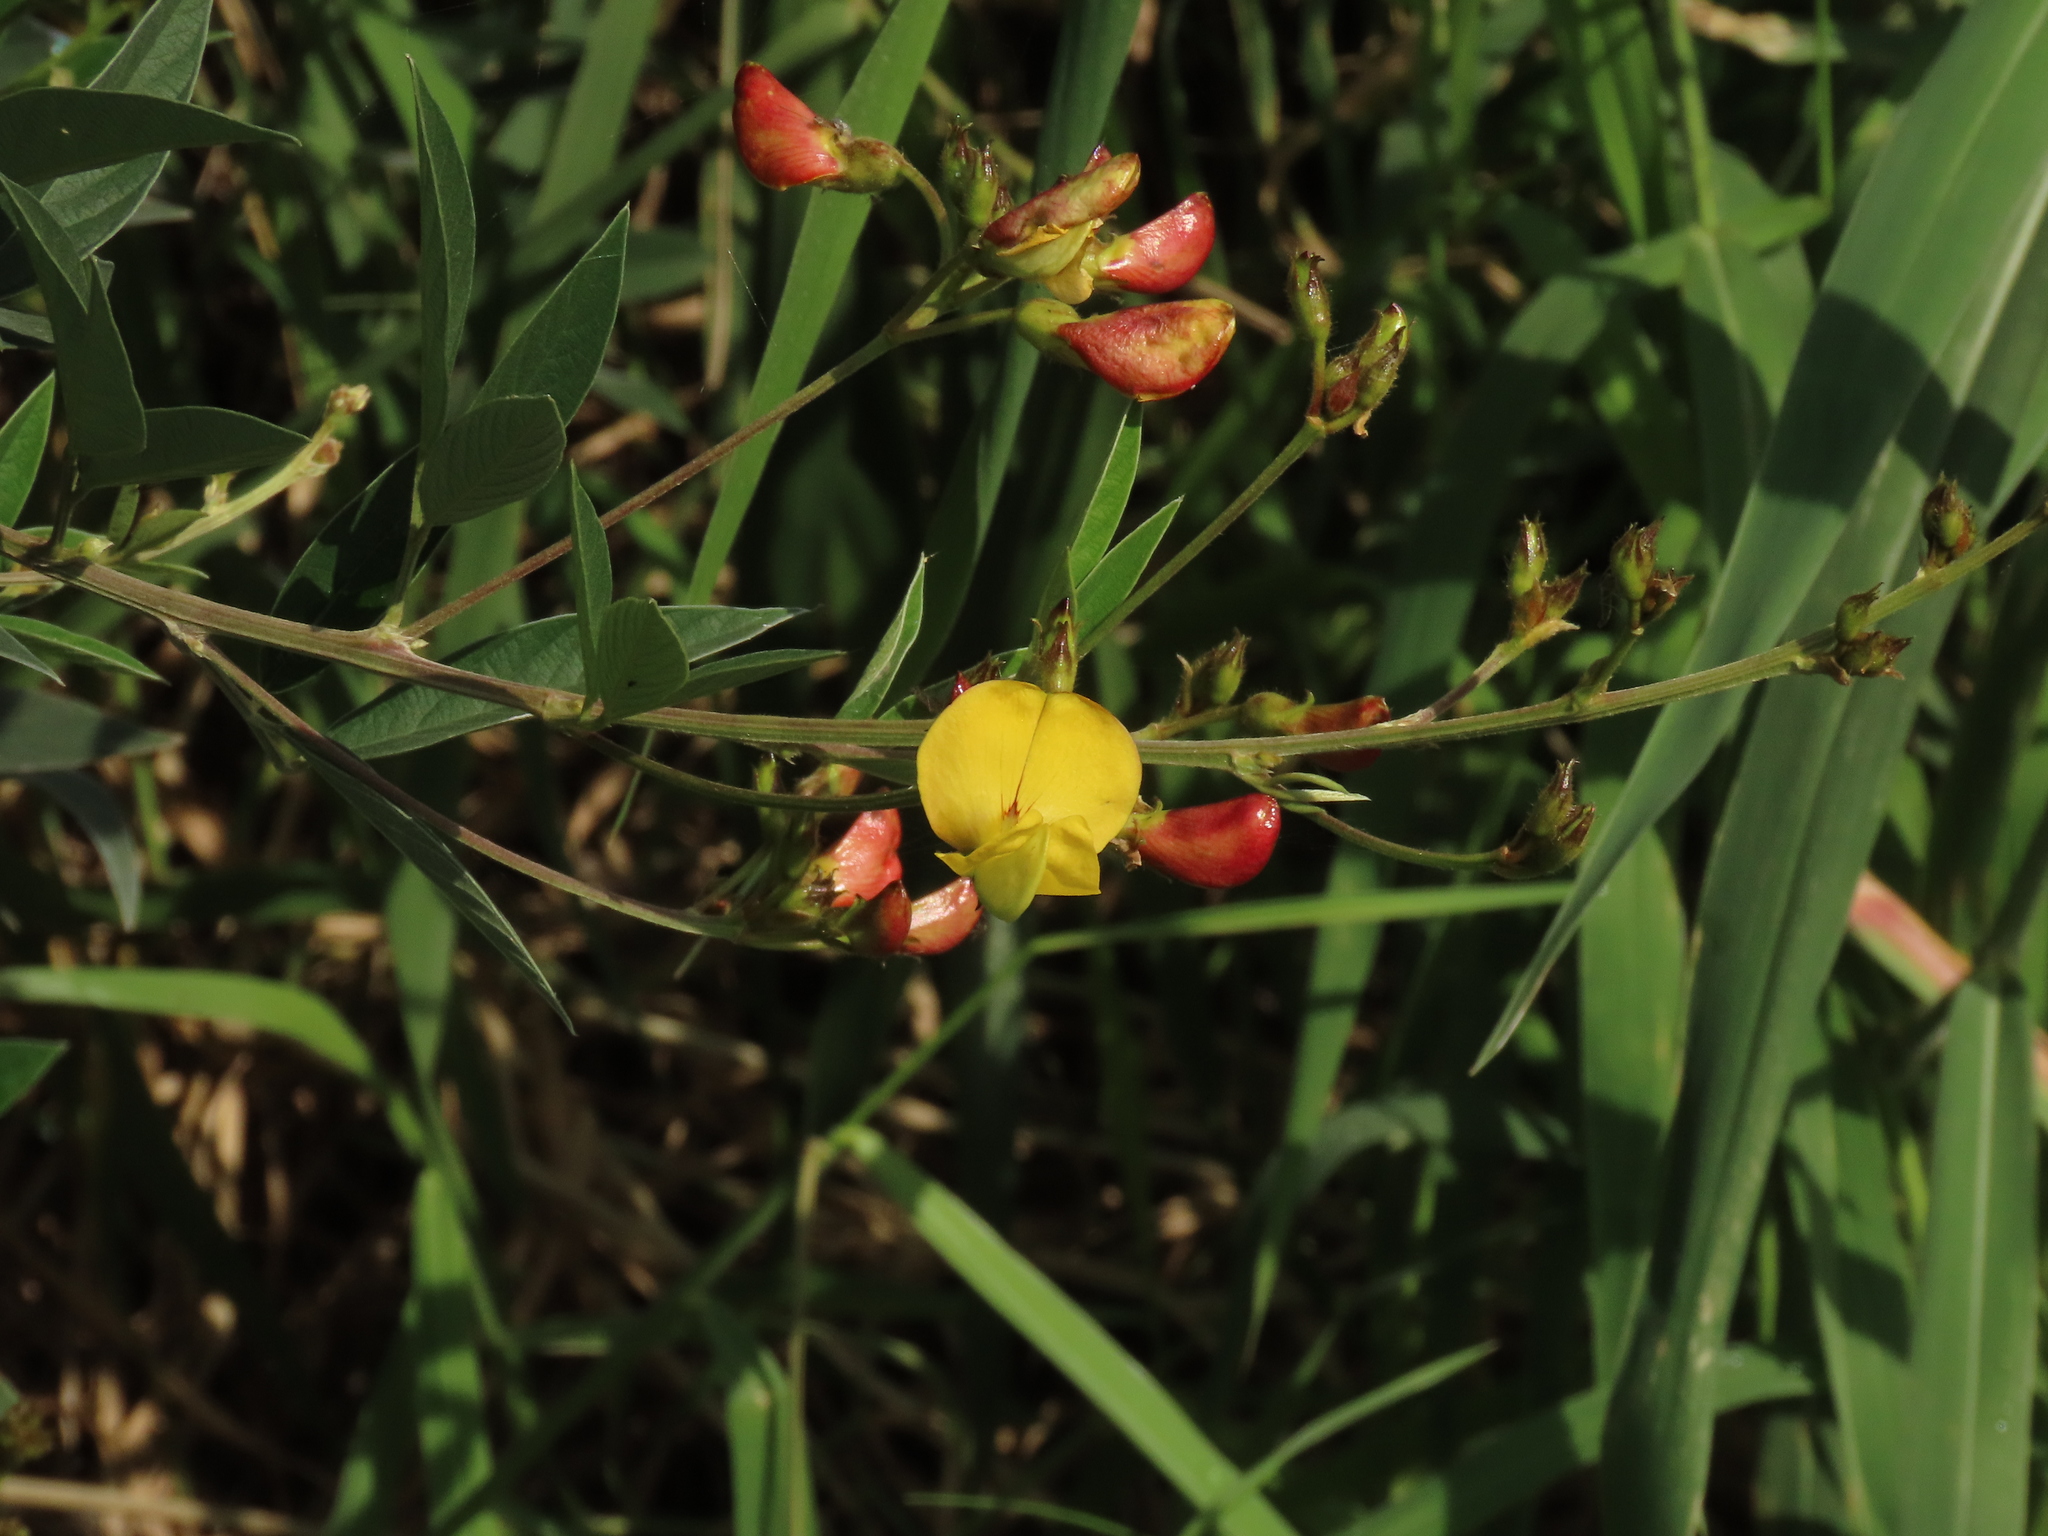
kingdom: Plantae
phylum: Tracheophyta
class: Magnoliopsida
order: Fabales
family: Fabaceae
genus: Cajanus
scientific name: Cajanus cajan
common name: Pigeonpea
